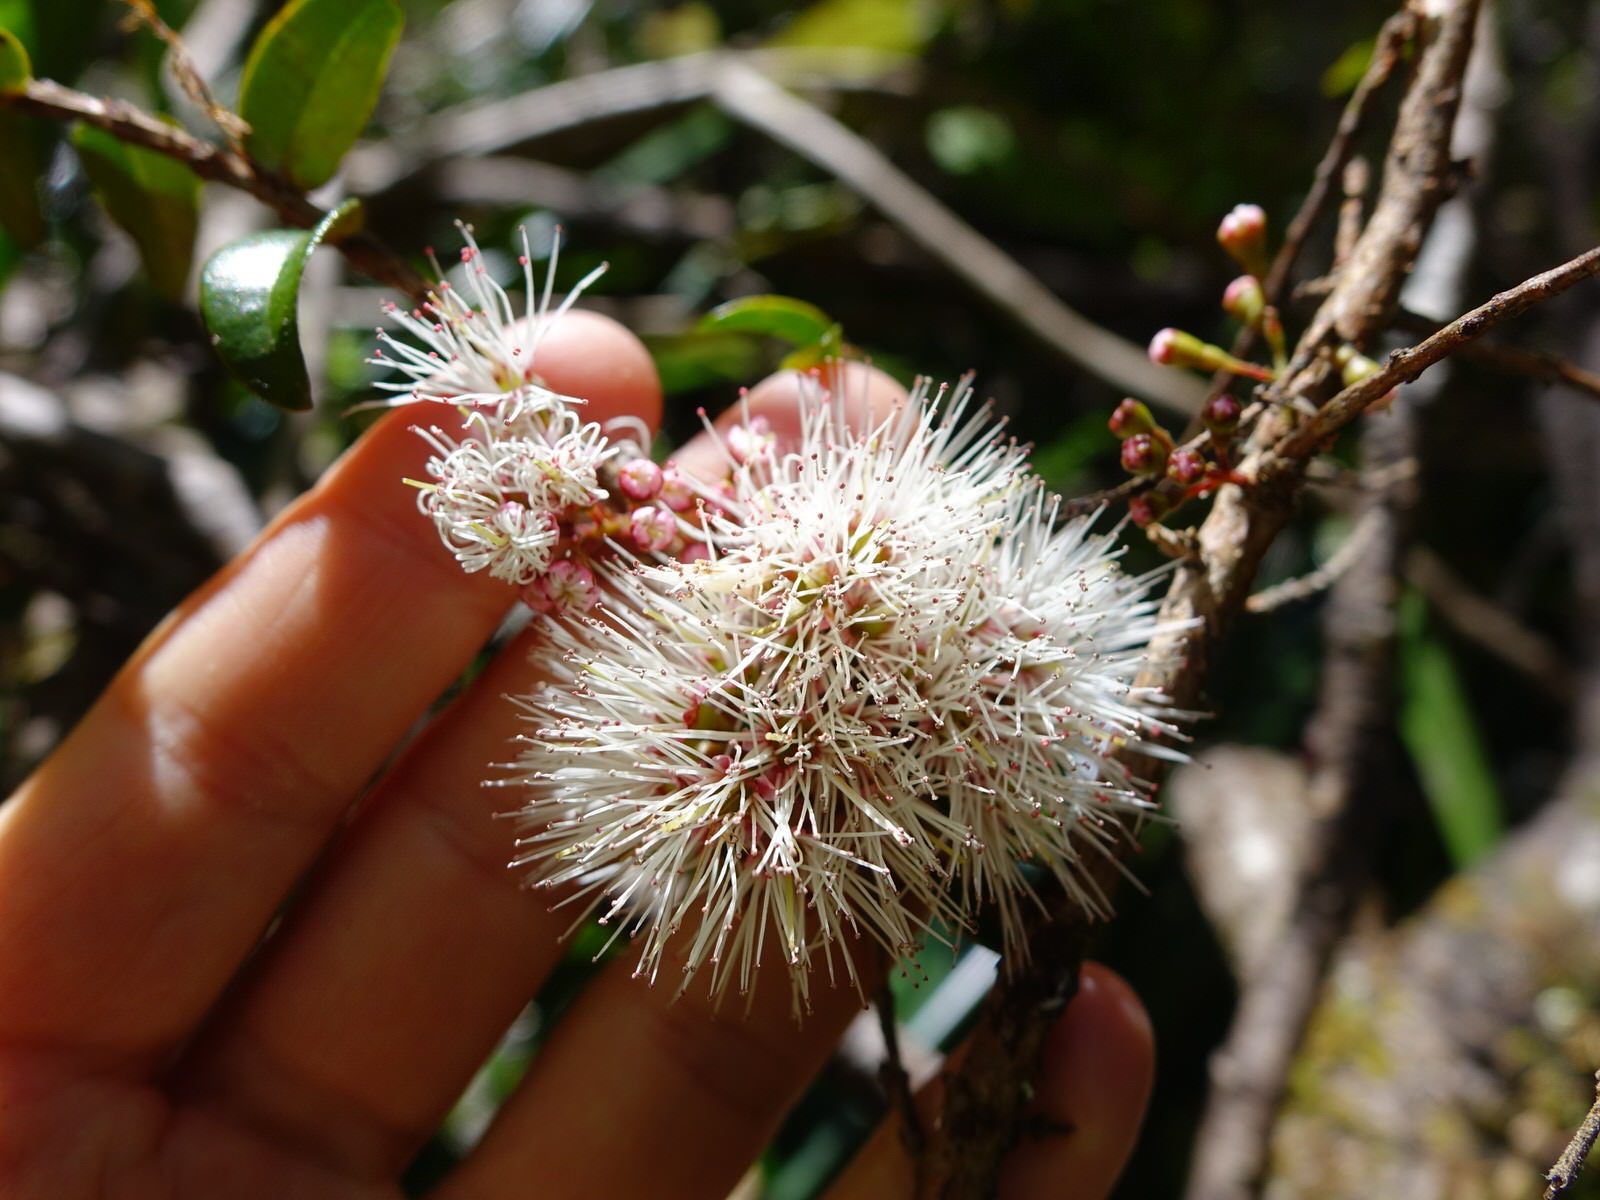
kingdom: Plantae
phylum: Tracheophyta
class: Magnoliopsida
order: Myrtales
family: Myrtaceae
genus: Metrosideros
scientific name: Metrosideros diffusa
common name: Small ratavine
